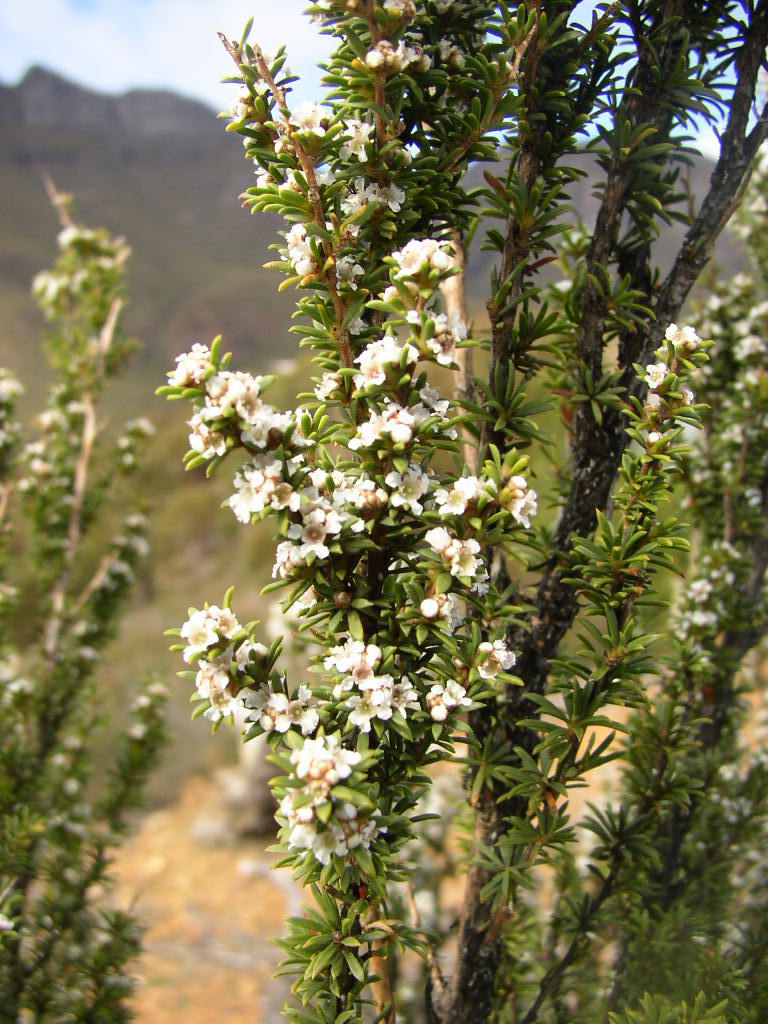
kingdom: Plantae
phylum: Tracheophyta
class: Magnoliopsida
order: Myrtales
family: Myrtaceae
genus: Taxandria
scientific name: Taxandria parviceps
